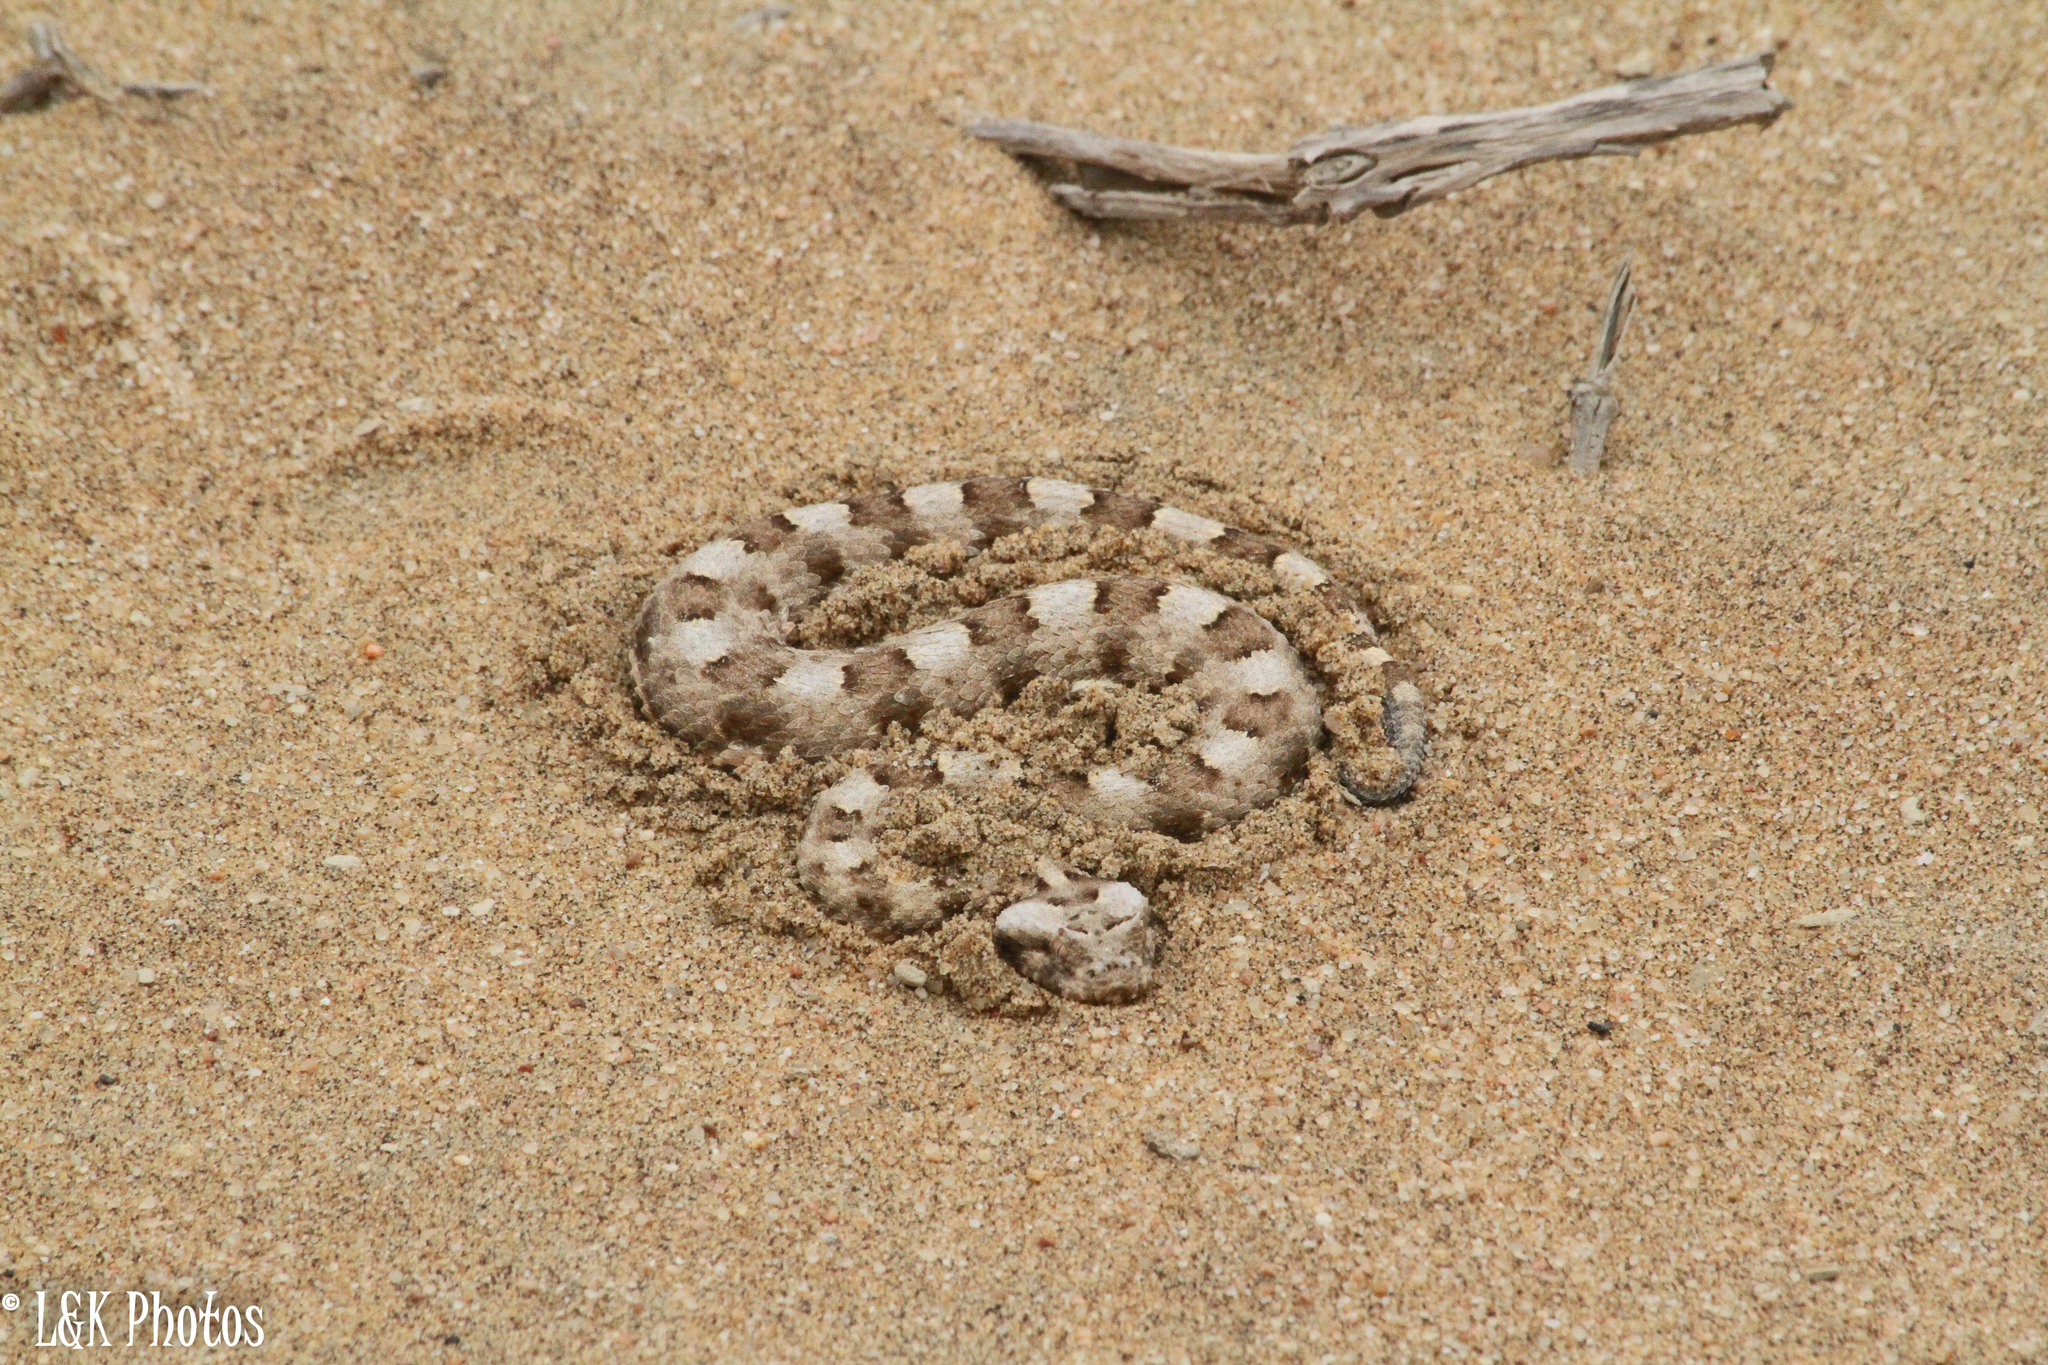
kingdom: Animalia
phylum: Chordata
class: Squamata
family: Viperidae
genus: Bitis
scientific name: Bitis caudalis
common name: Horned adder
